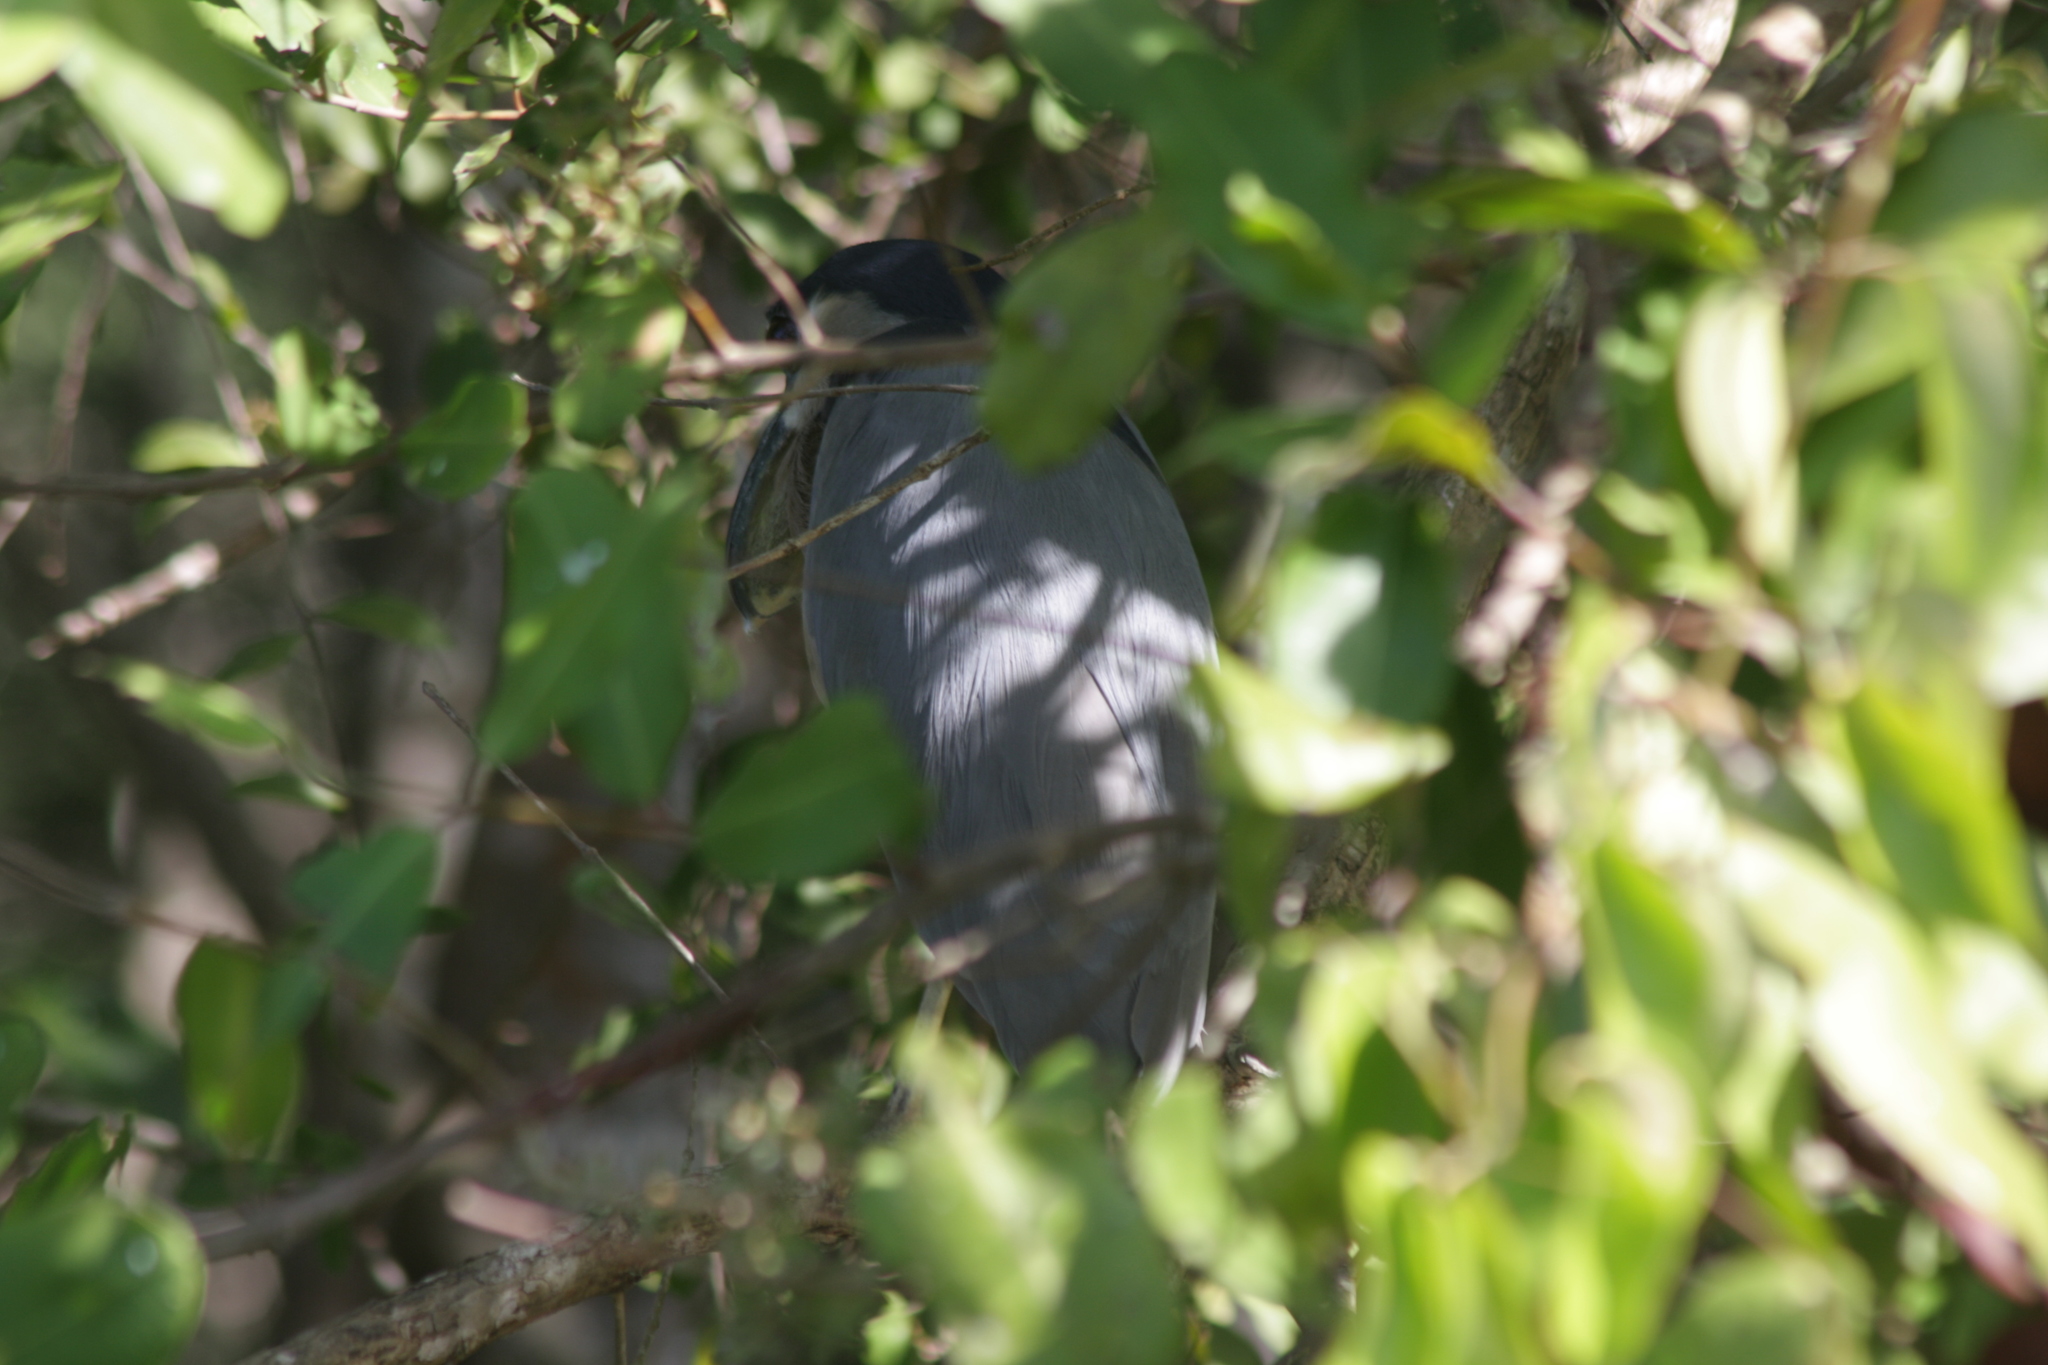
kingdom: Animalia
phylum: Chordata
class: Aves
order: Pelecaniformes
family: Ardeidae
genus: Cochlearius
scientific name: Cochlearius cochlearius
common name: Boat-billed heron
